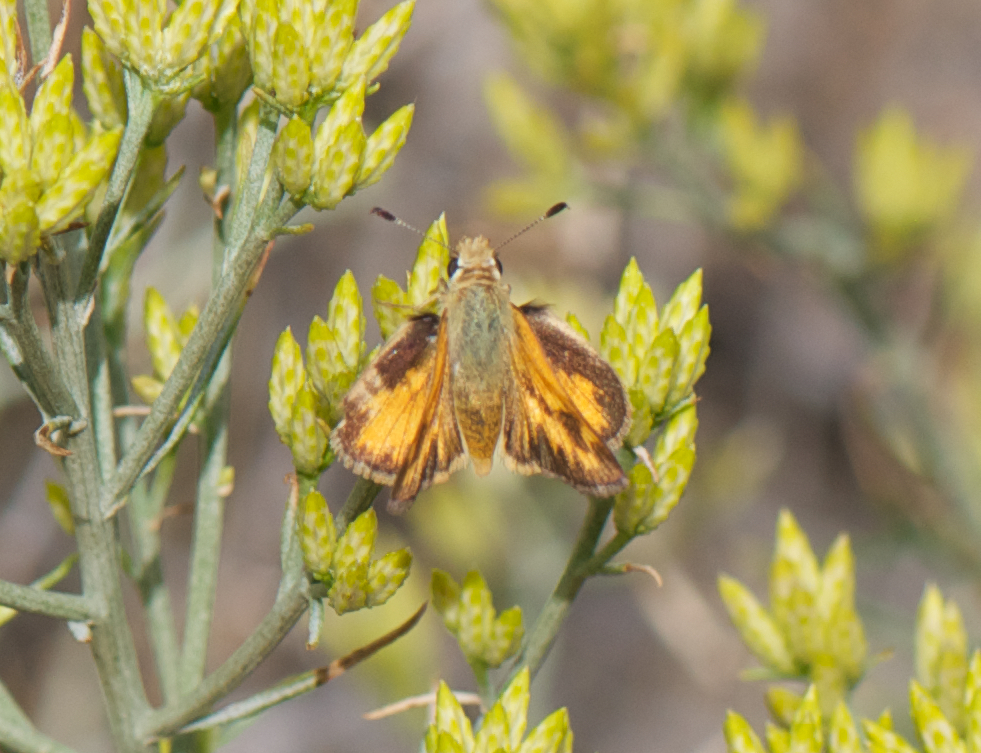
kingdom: Animalia
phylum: Arthropoda
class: Insecta
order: Lepidoptera
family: Hesperiidae
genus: Ochlodes
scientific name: Ochlodes sylvanoides
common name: Woodland skipper
